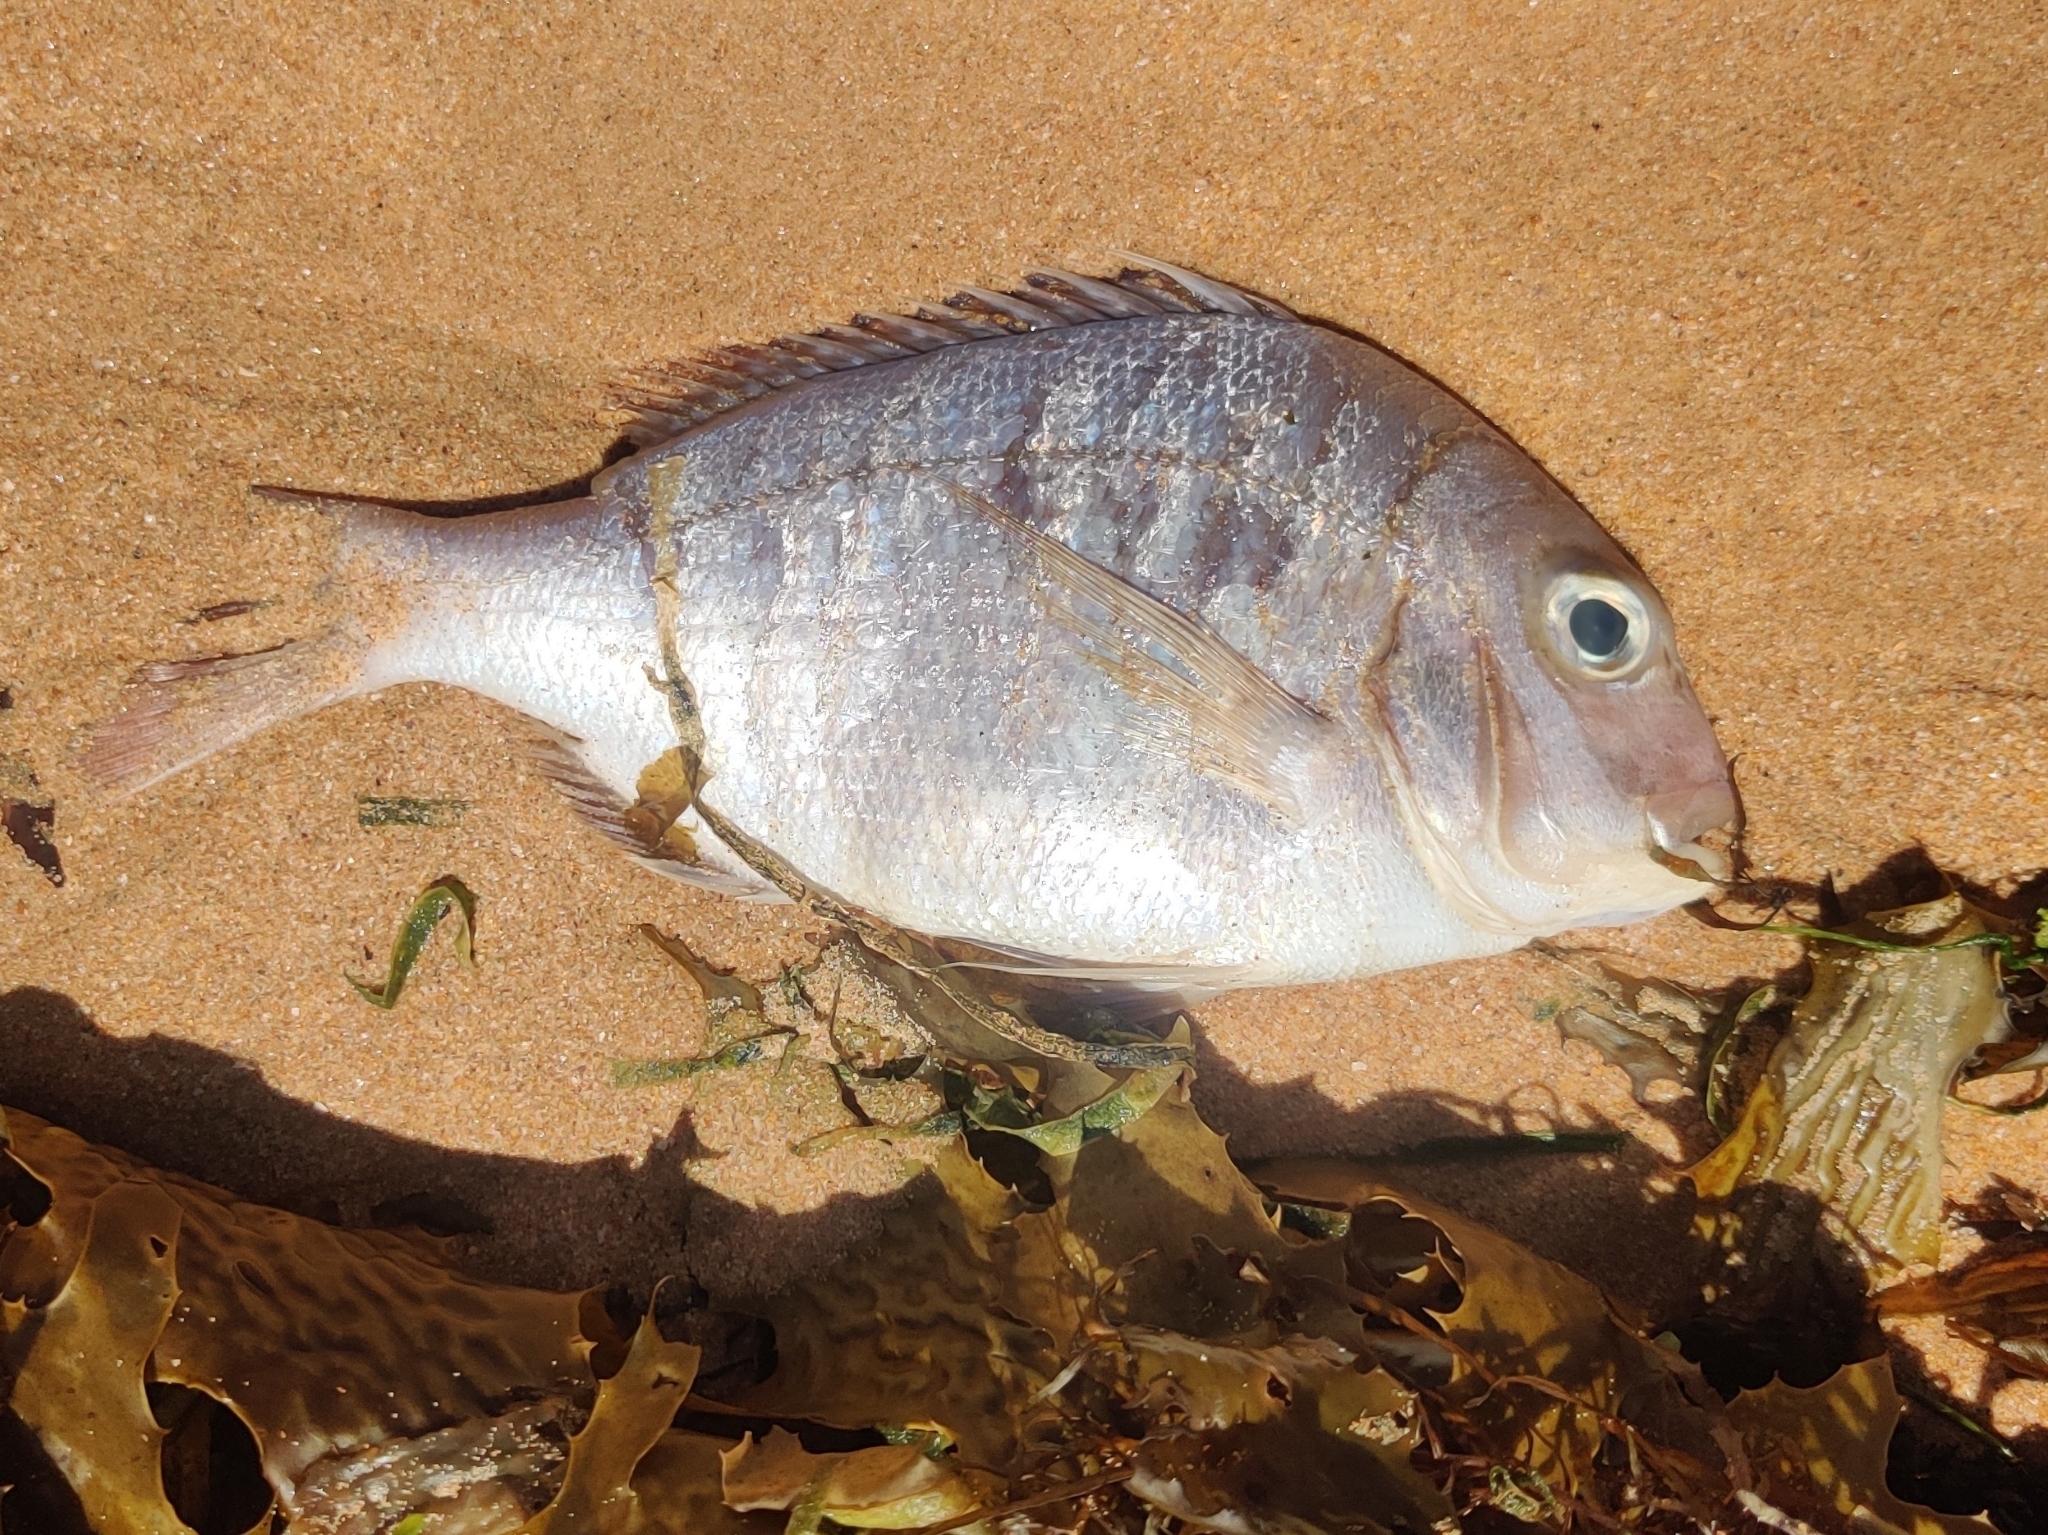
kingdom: Animalia
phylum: Chordata
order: Perciformes
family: Sparidae
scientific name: Sparidae
